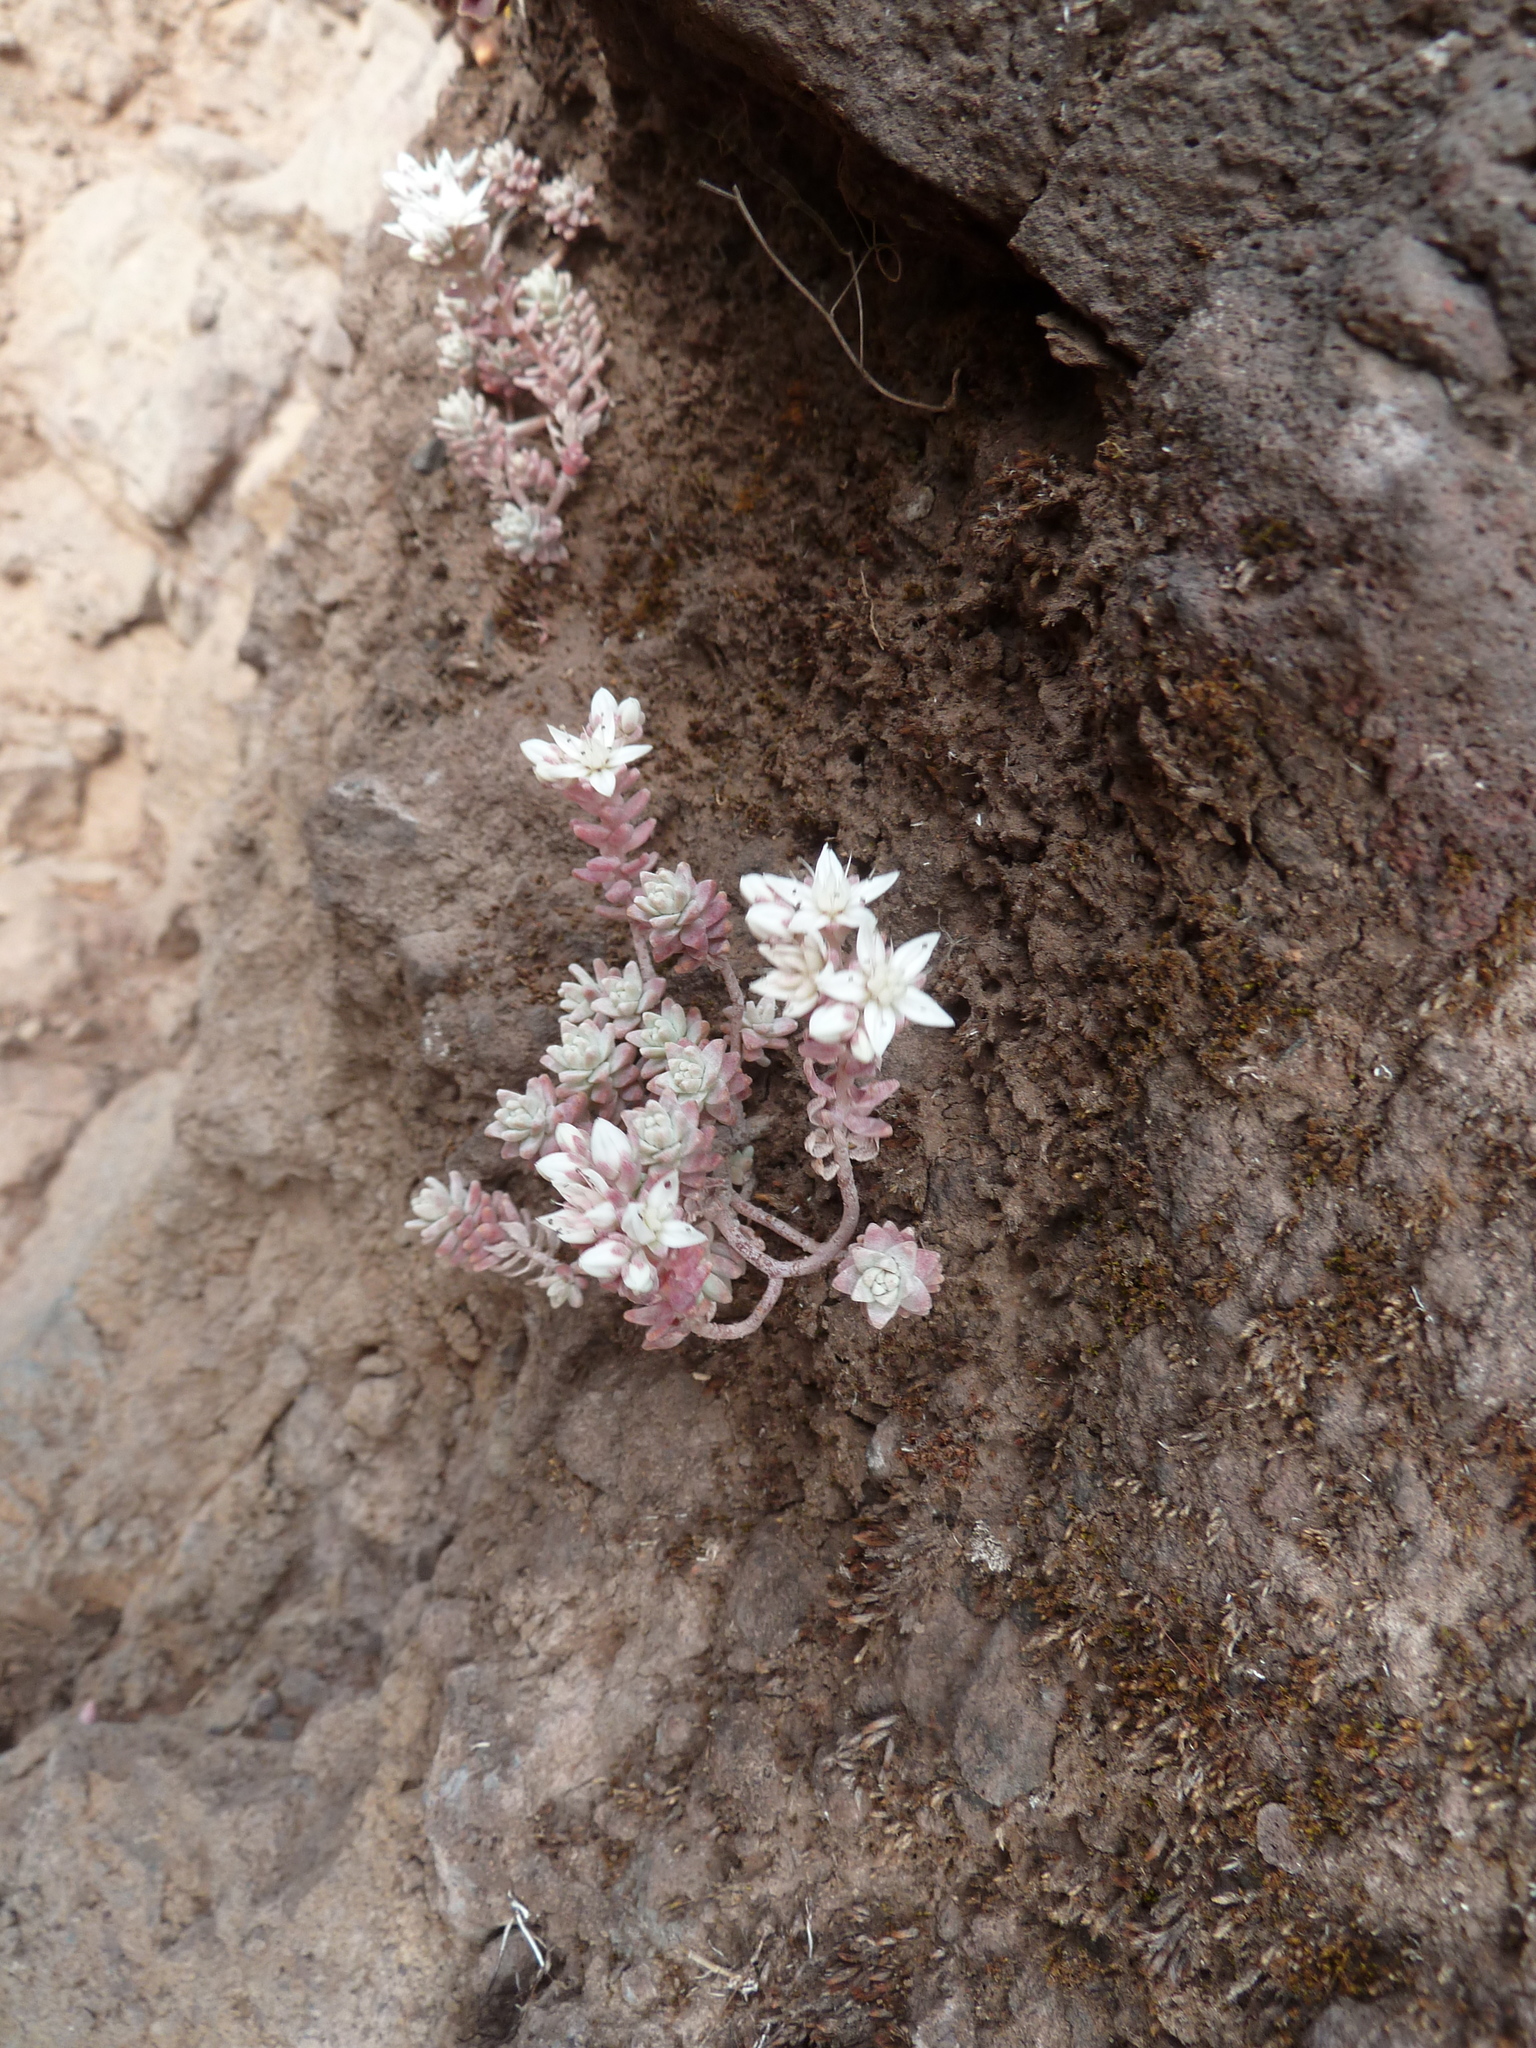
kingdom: Plantae
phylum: Tracheophyta
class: Magnoliopsida
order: Saxifragales
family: Crassulaceae
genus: Sedum
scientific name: Sedum farinosum
